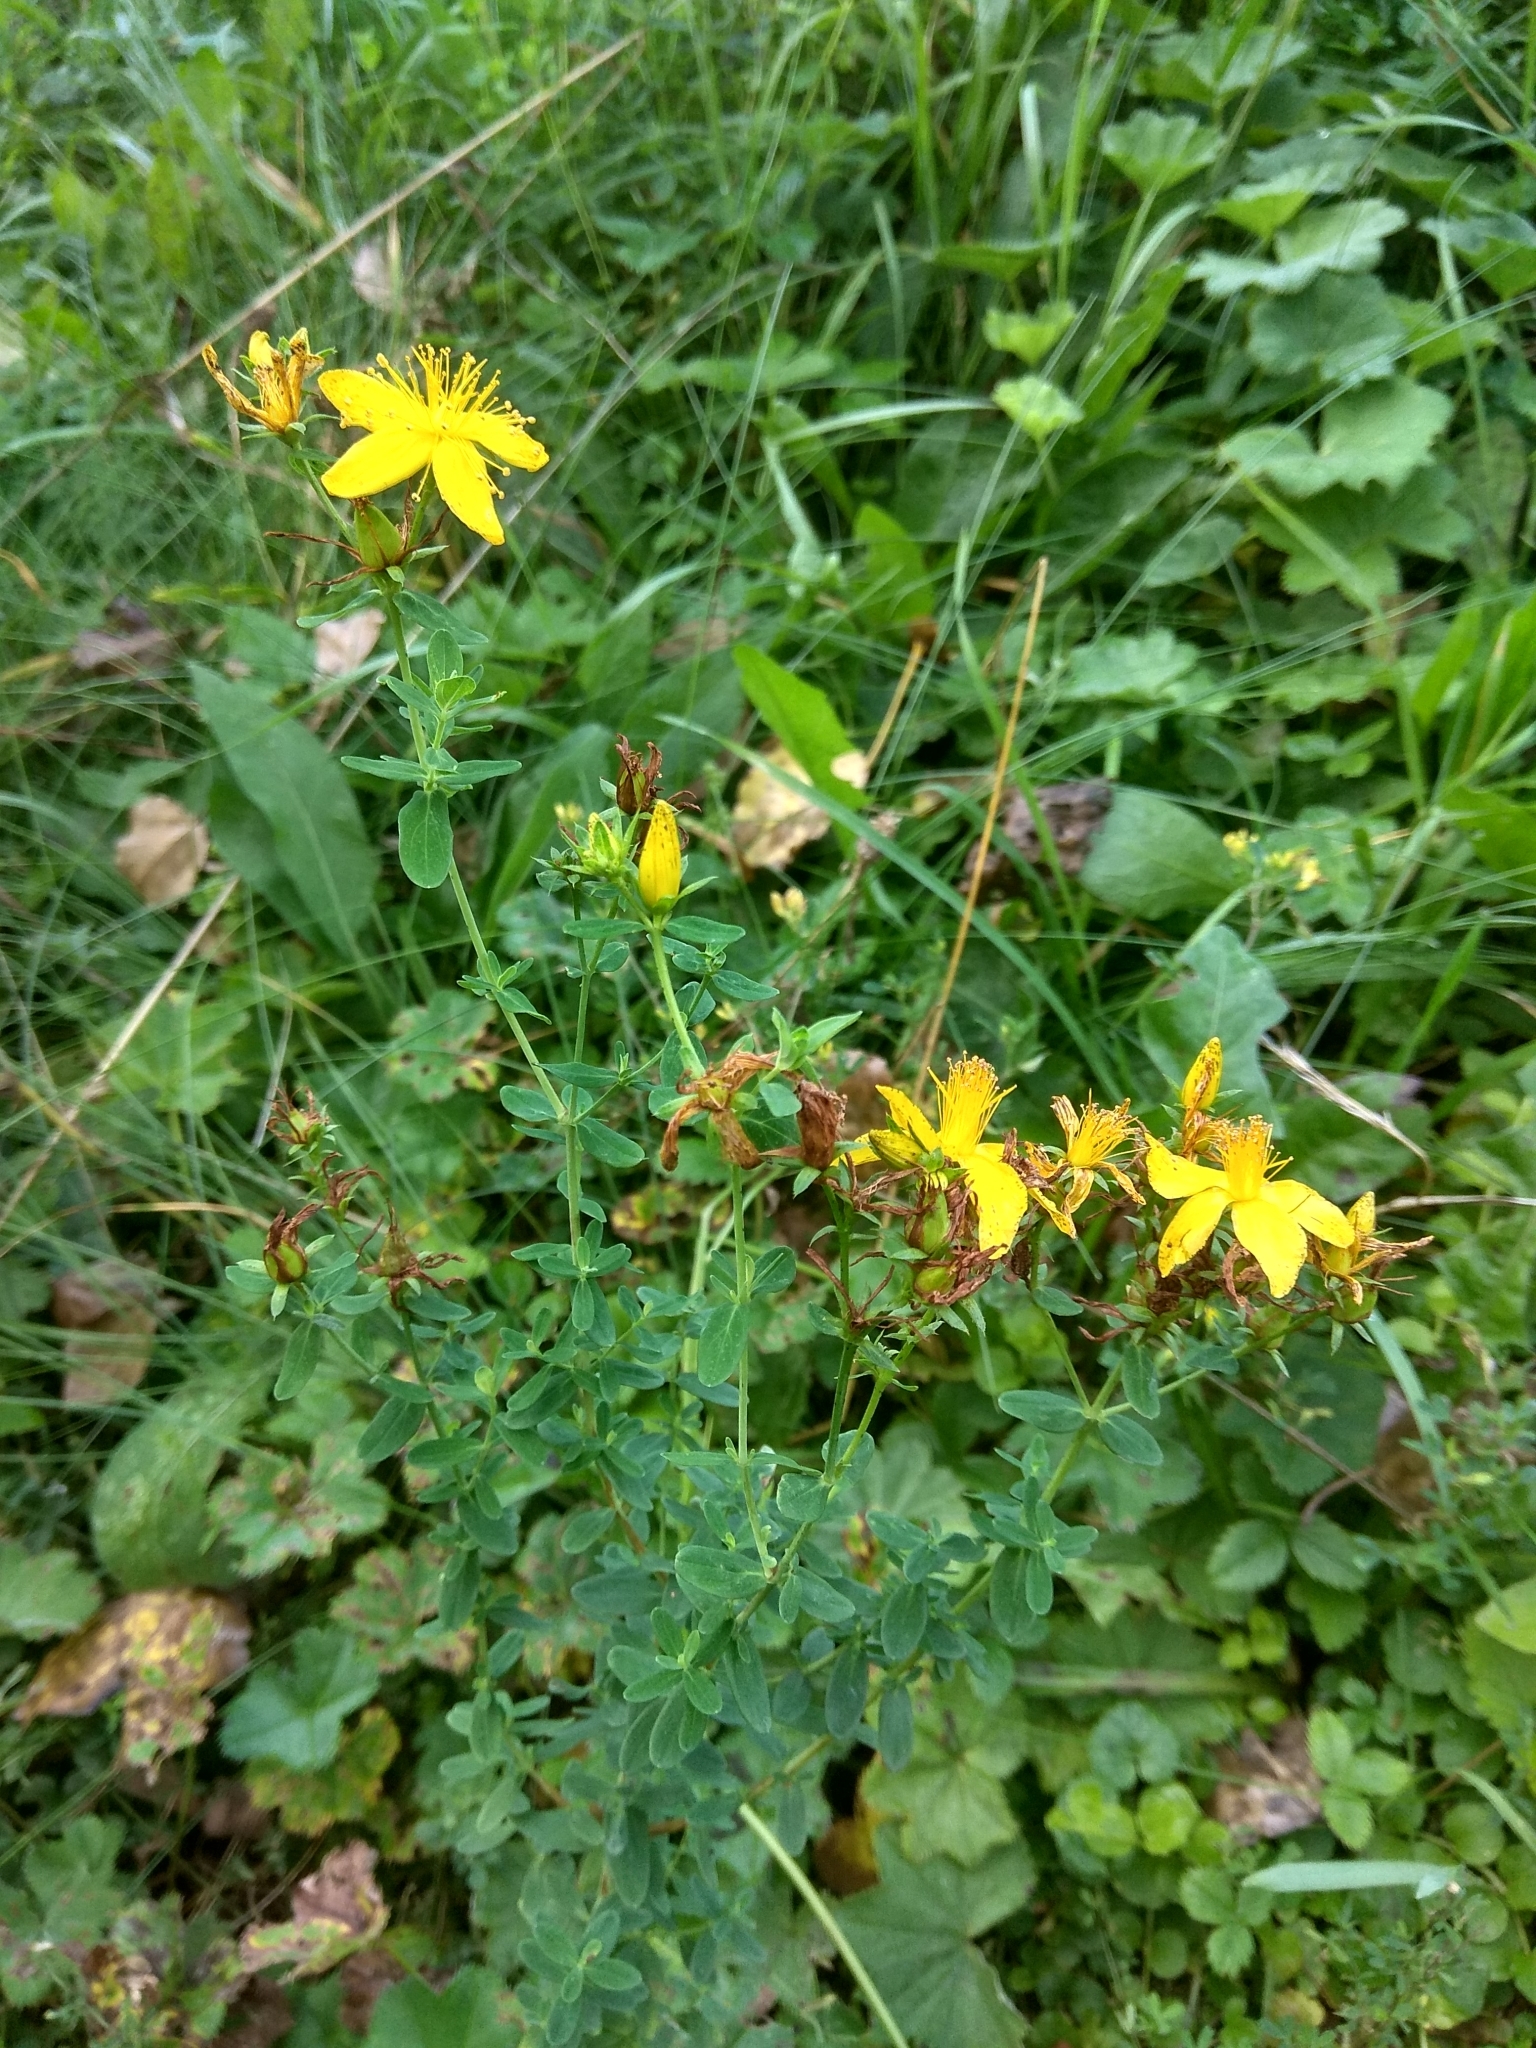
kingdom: Plantae
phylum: Tracheophyta
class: Magnoliopsida
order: Malpighiales
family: Hypericaceae
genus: Hypericum
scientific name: Hypericum perforatum
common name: Common st. johnswort
